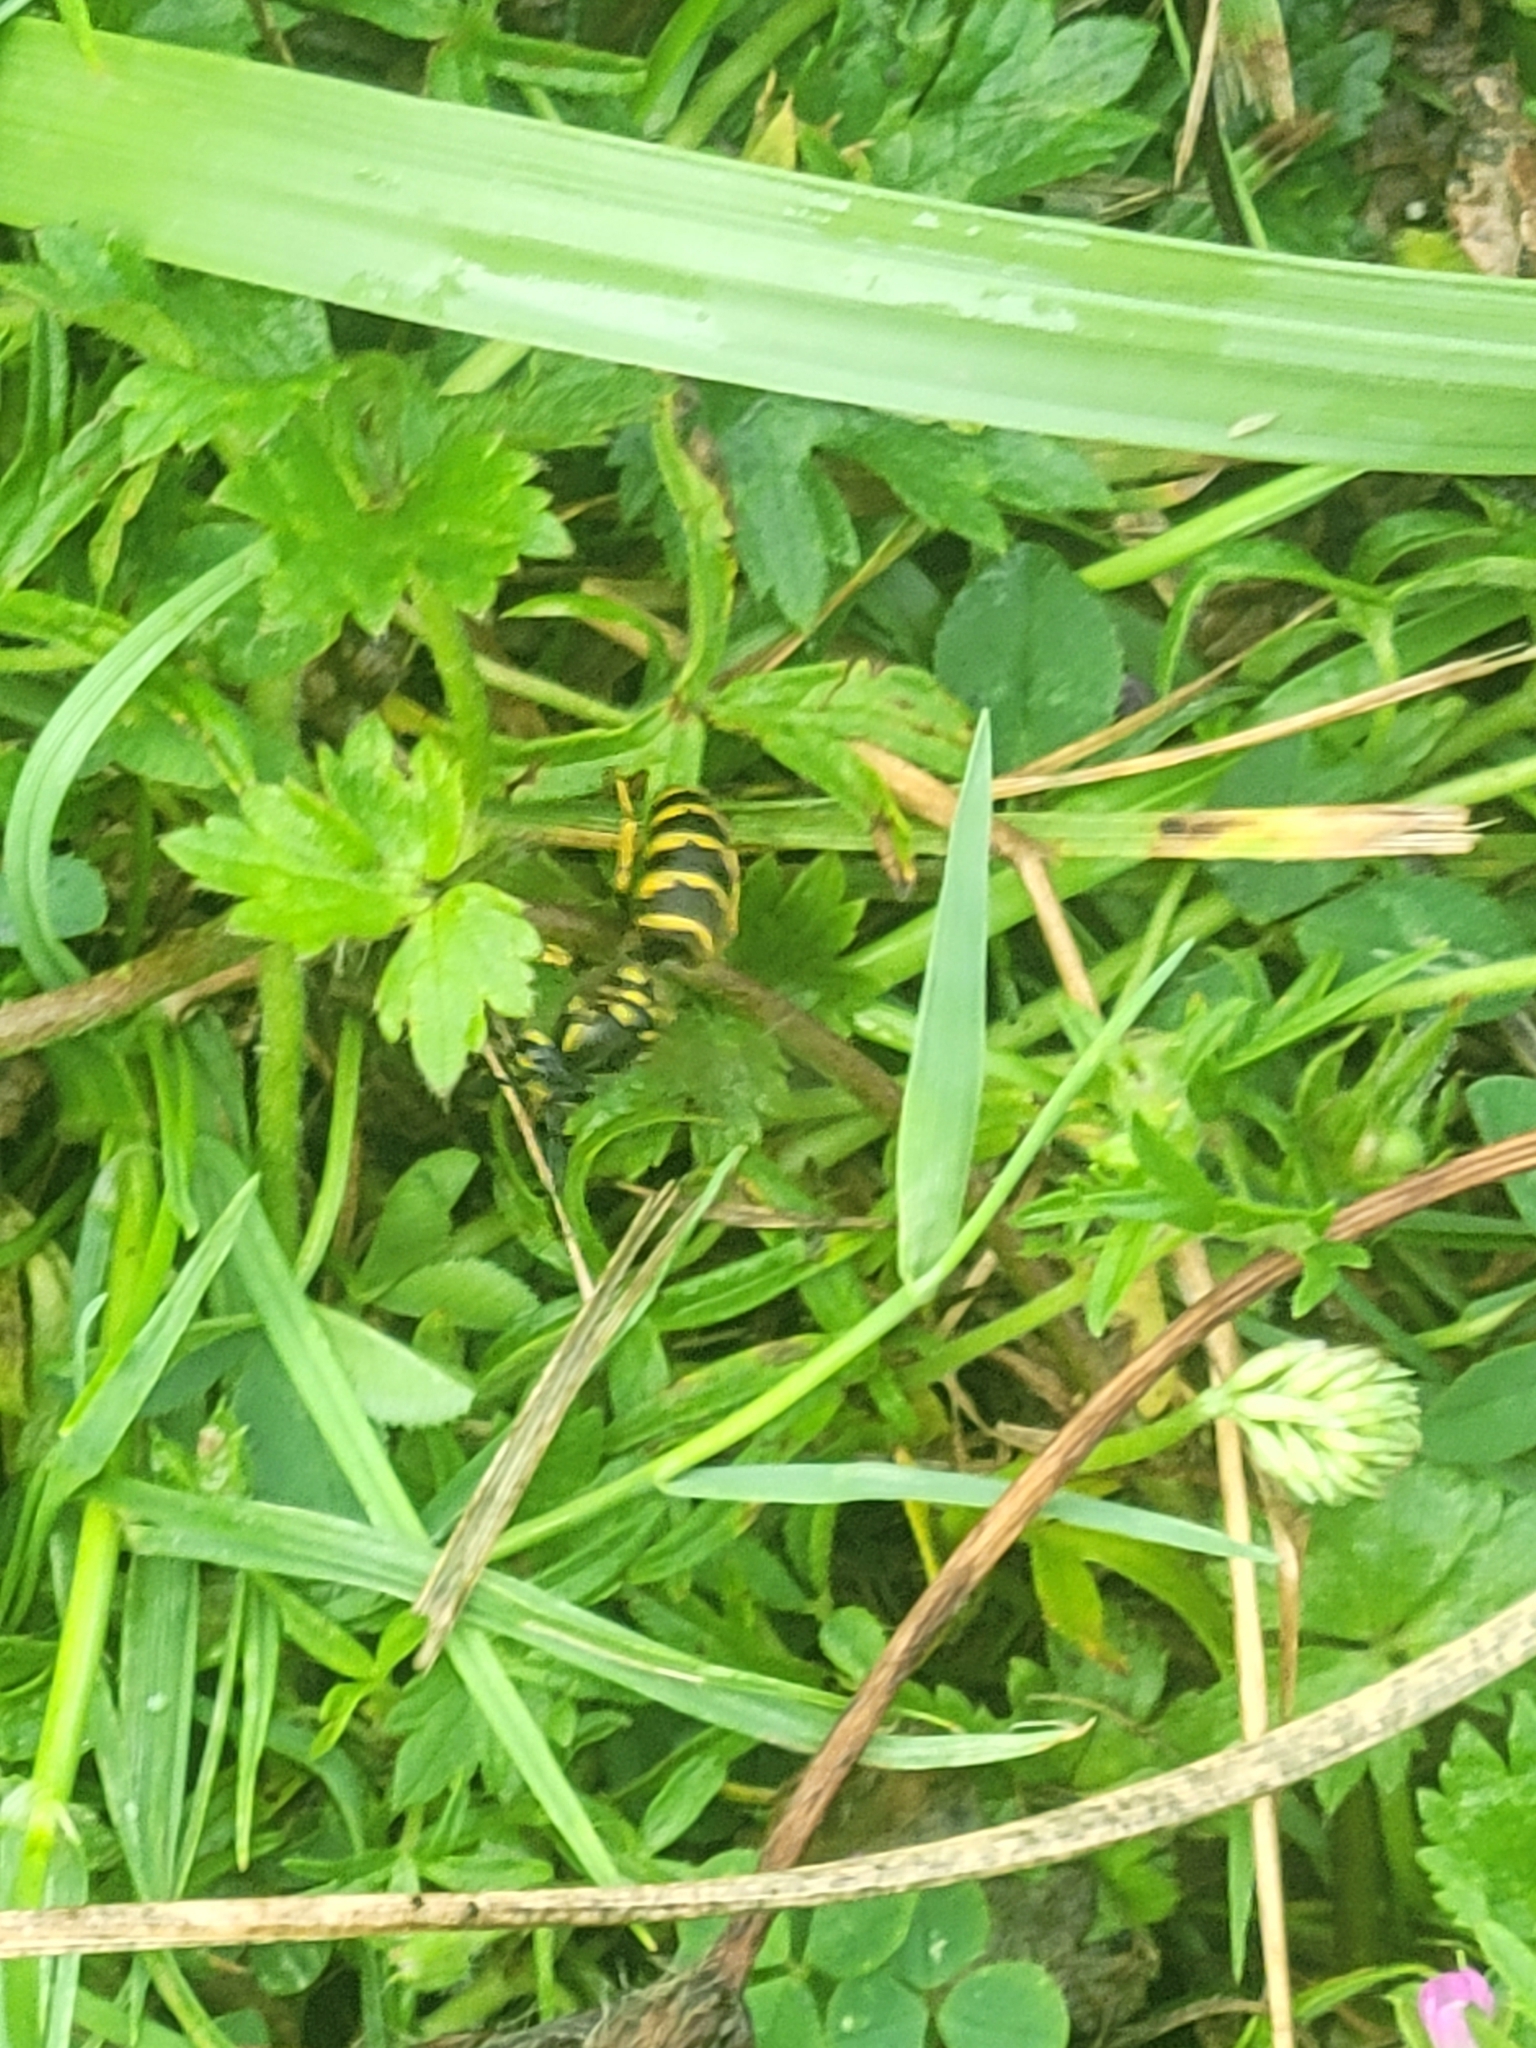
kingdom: Animalia
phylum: Arthropoda
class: Insecta
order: Hymenoptera
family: Vespidae
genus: Vespula
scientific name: Vespula vulgaris
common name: Common wasp
